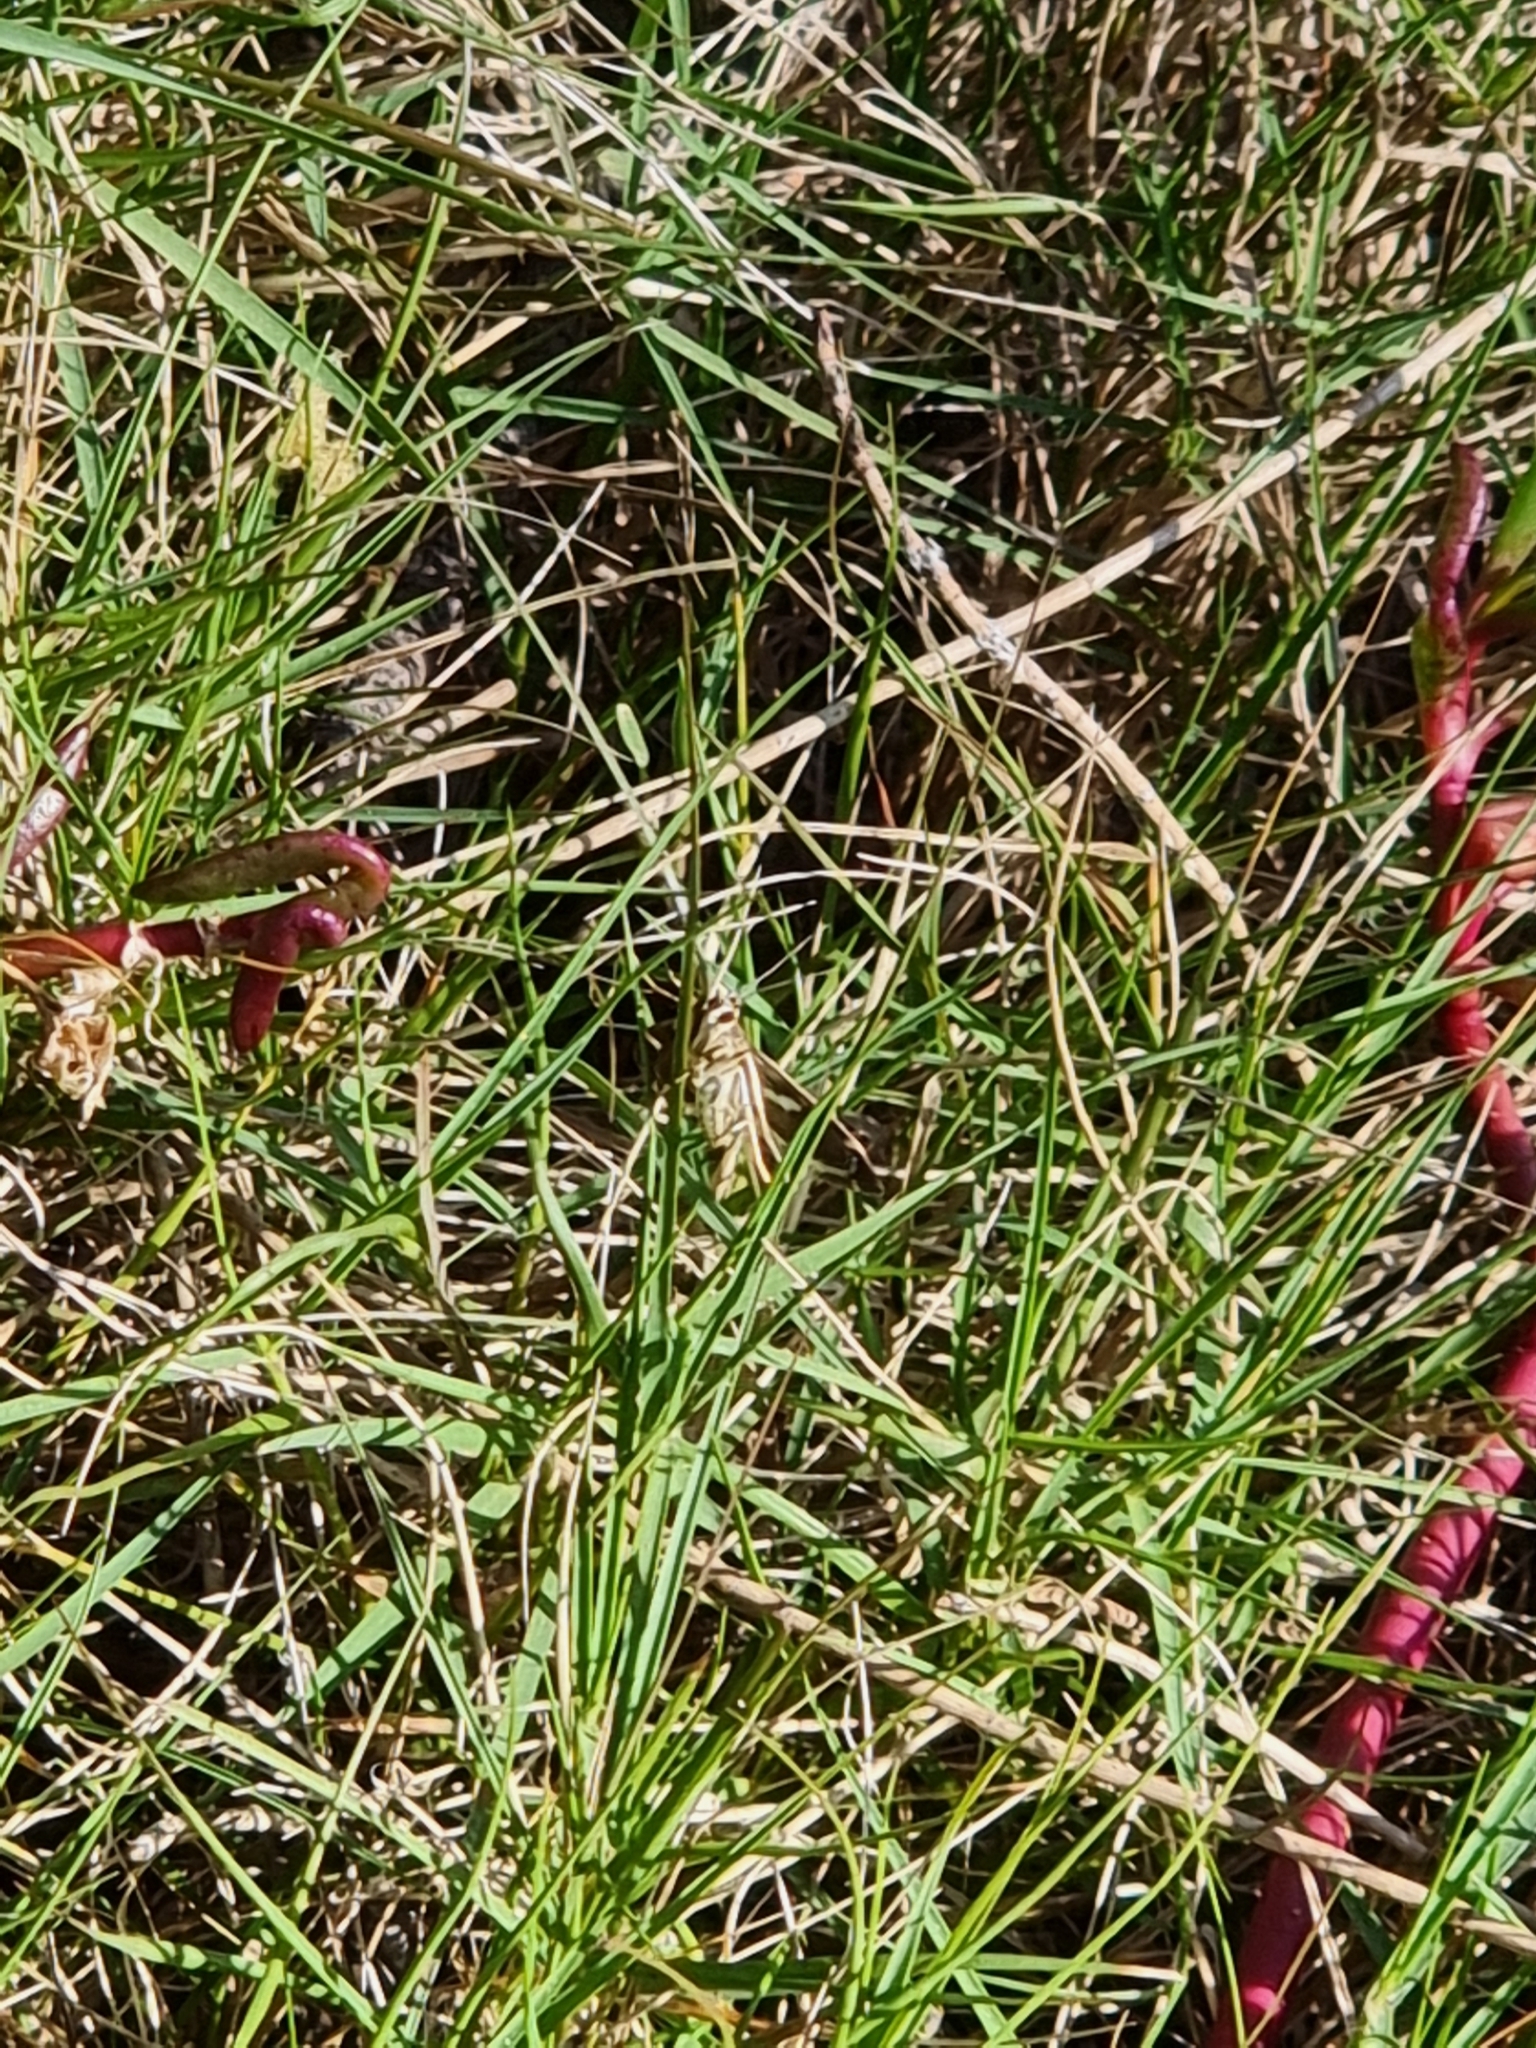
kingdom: Animalia
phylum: Arthropoda
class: Insecta
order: Lepidoptera
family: Crambidae
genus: Spoladea
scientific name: Spoladea recurvalis
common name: Beet webworm moth
